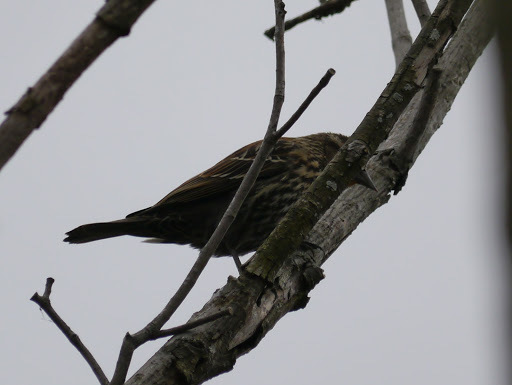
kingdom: Animalia
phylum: Chordata
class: Aves
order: Passeriformes
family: Icteridae
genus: Agelaius
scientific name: Agelaius phoeniceus
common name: Red-winged blackbird
